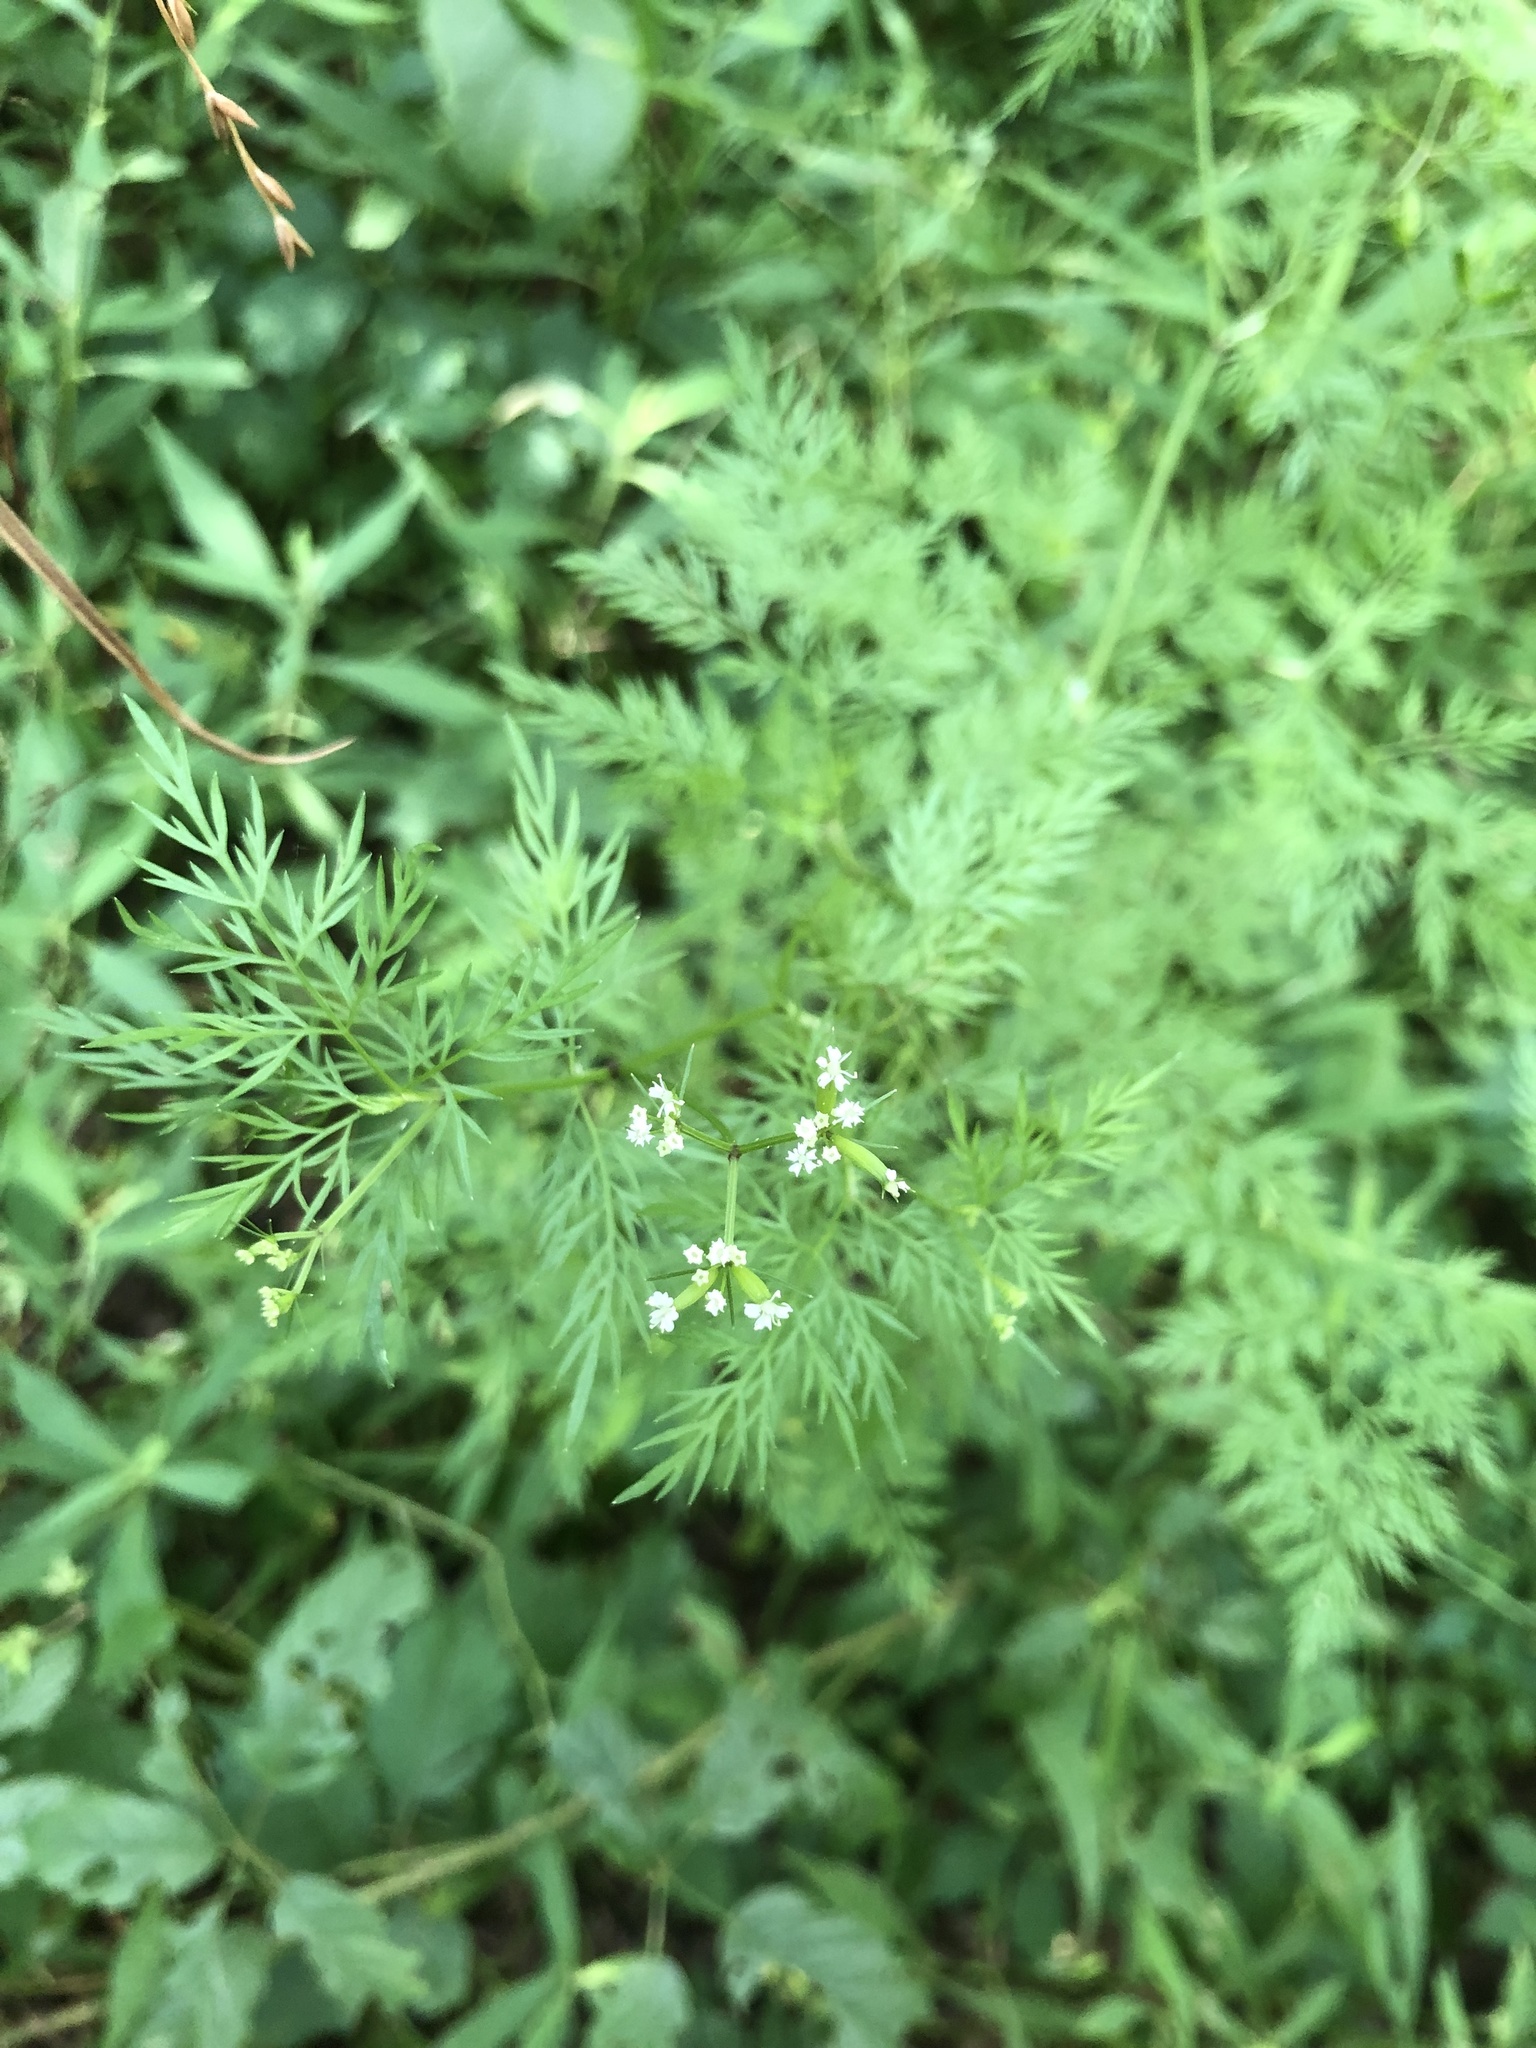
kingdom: Plantae
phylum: Tracheophyta
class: Magnoliopsida
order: Apiales
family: Apiaceae
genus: Trepocarpus
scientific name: Trepocarpus aethusae
